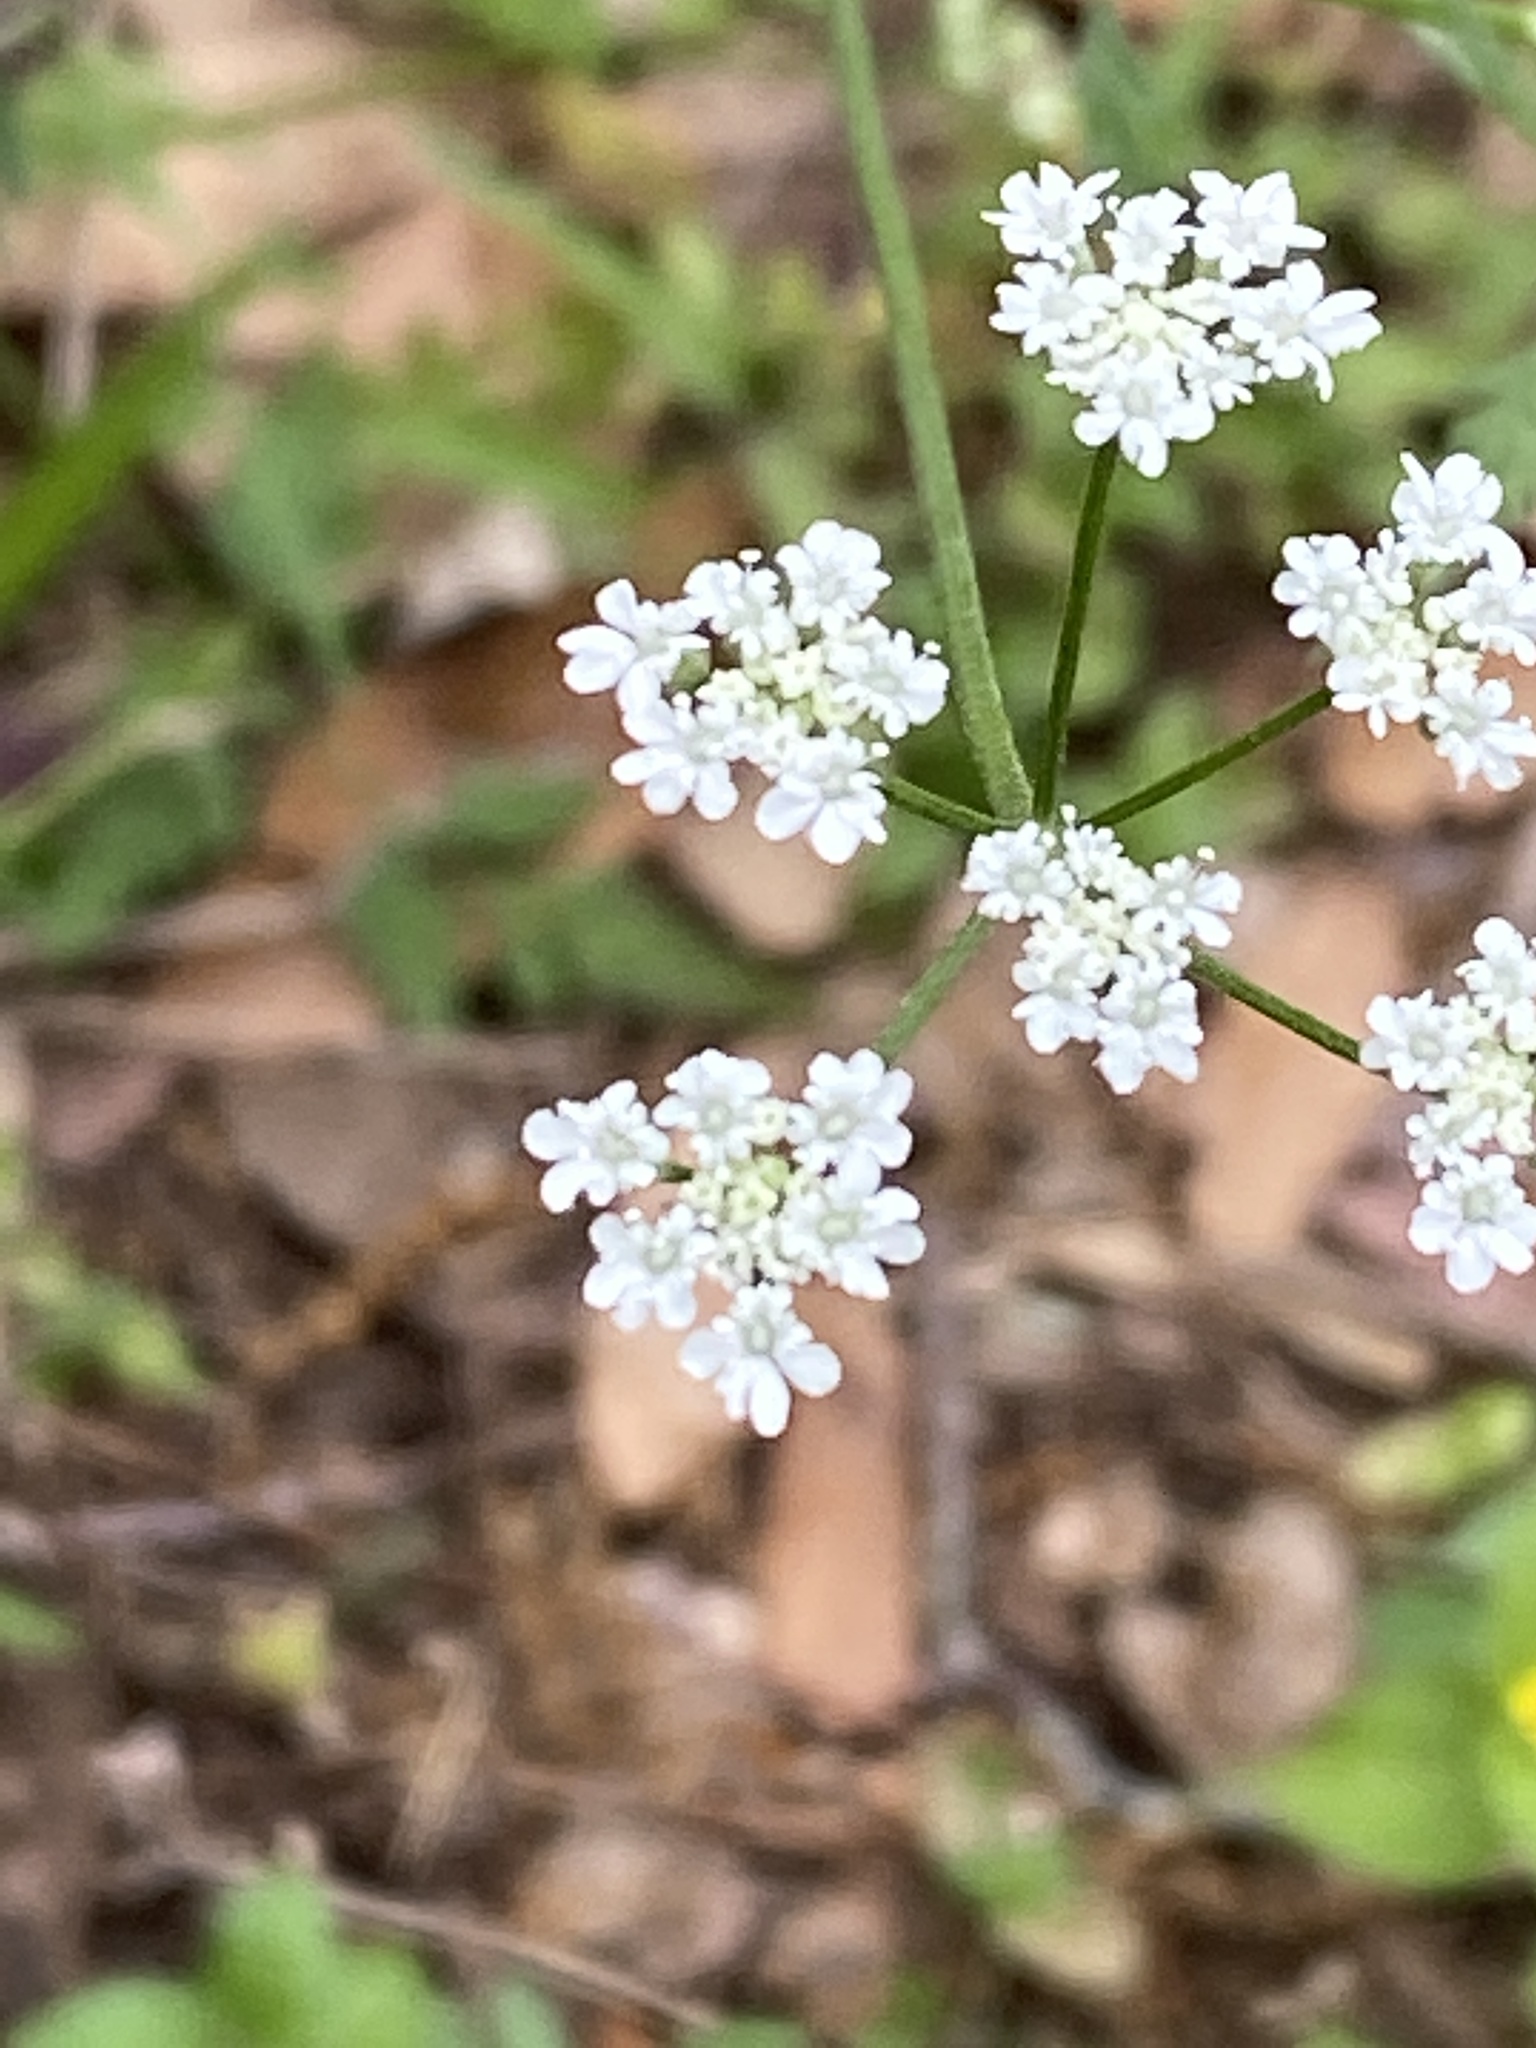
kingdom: Plantae
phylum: Tracheophyta
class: Magnoliopsida
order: Apiales
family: Apiaceae
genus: Torilis
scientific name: Torilis arvensis
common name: Spreading hedge-parsley
